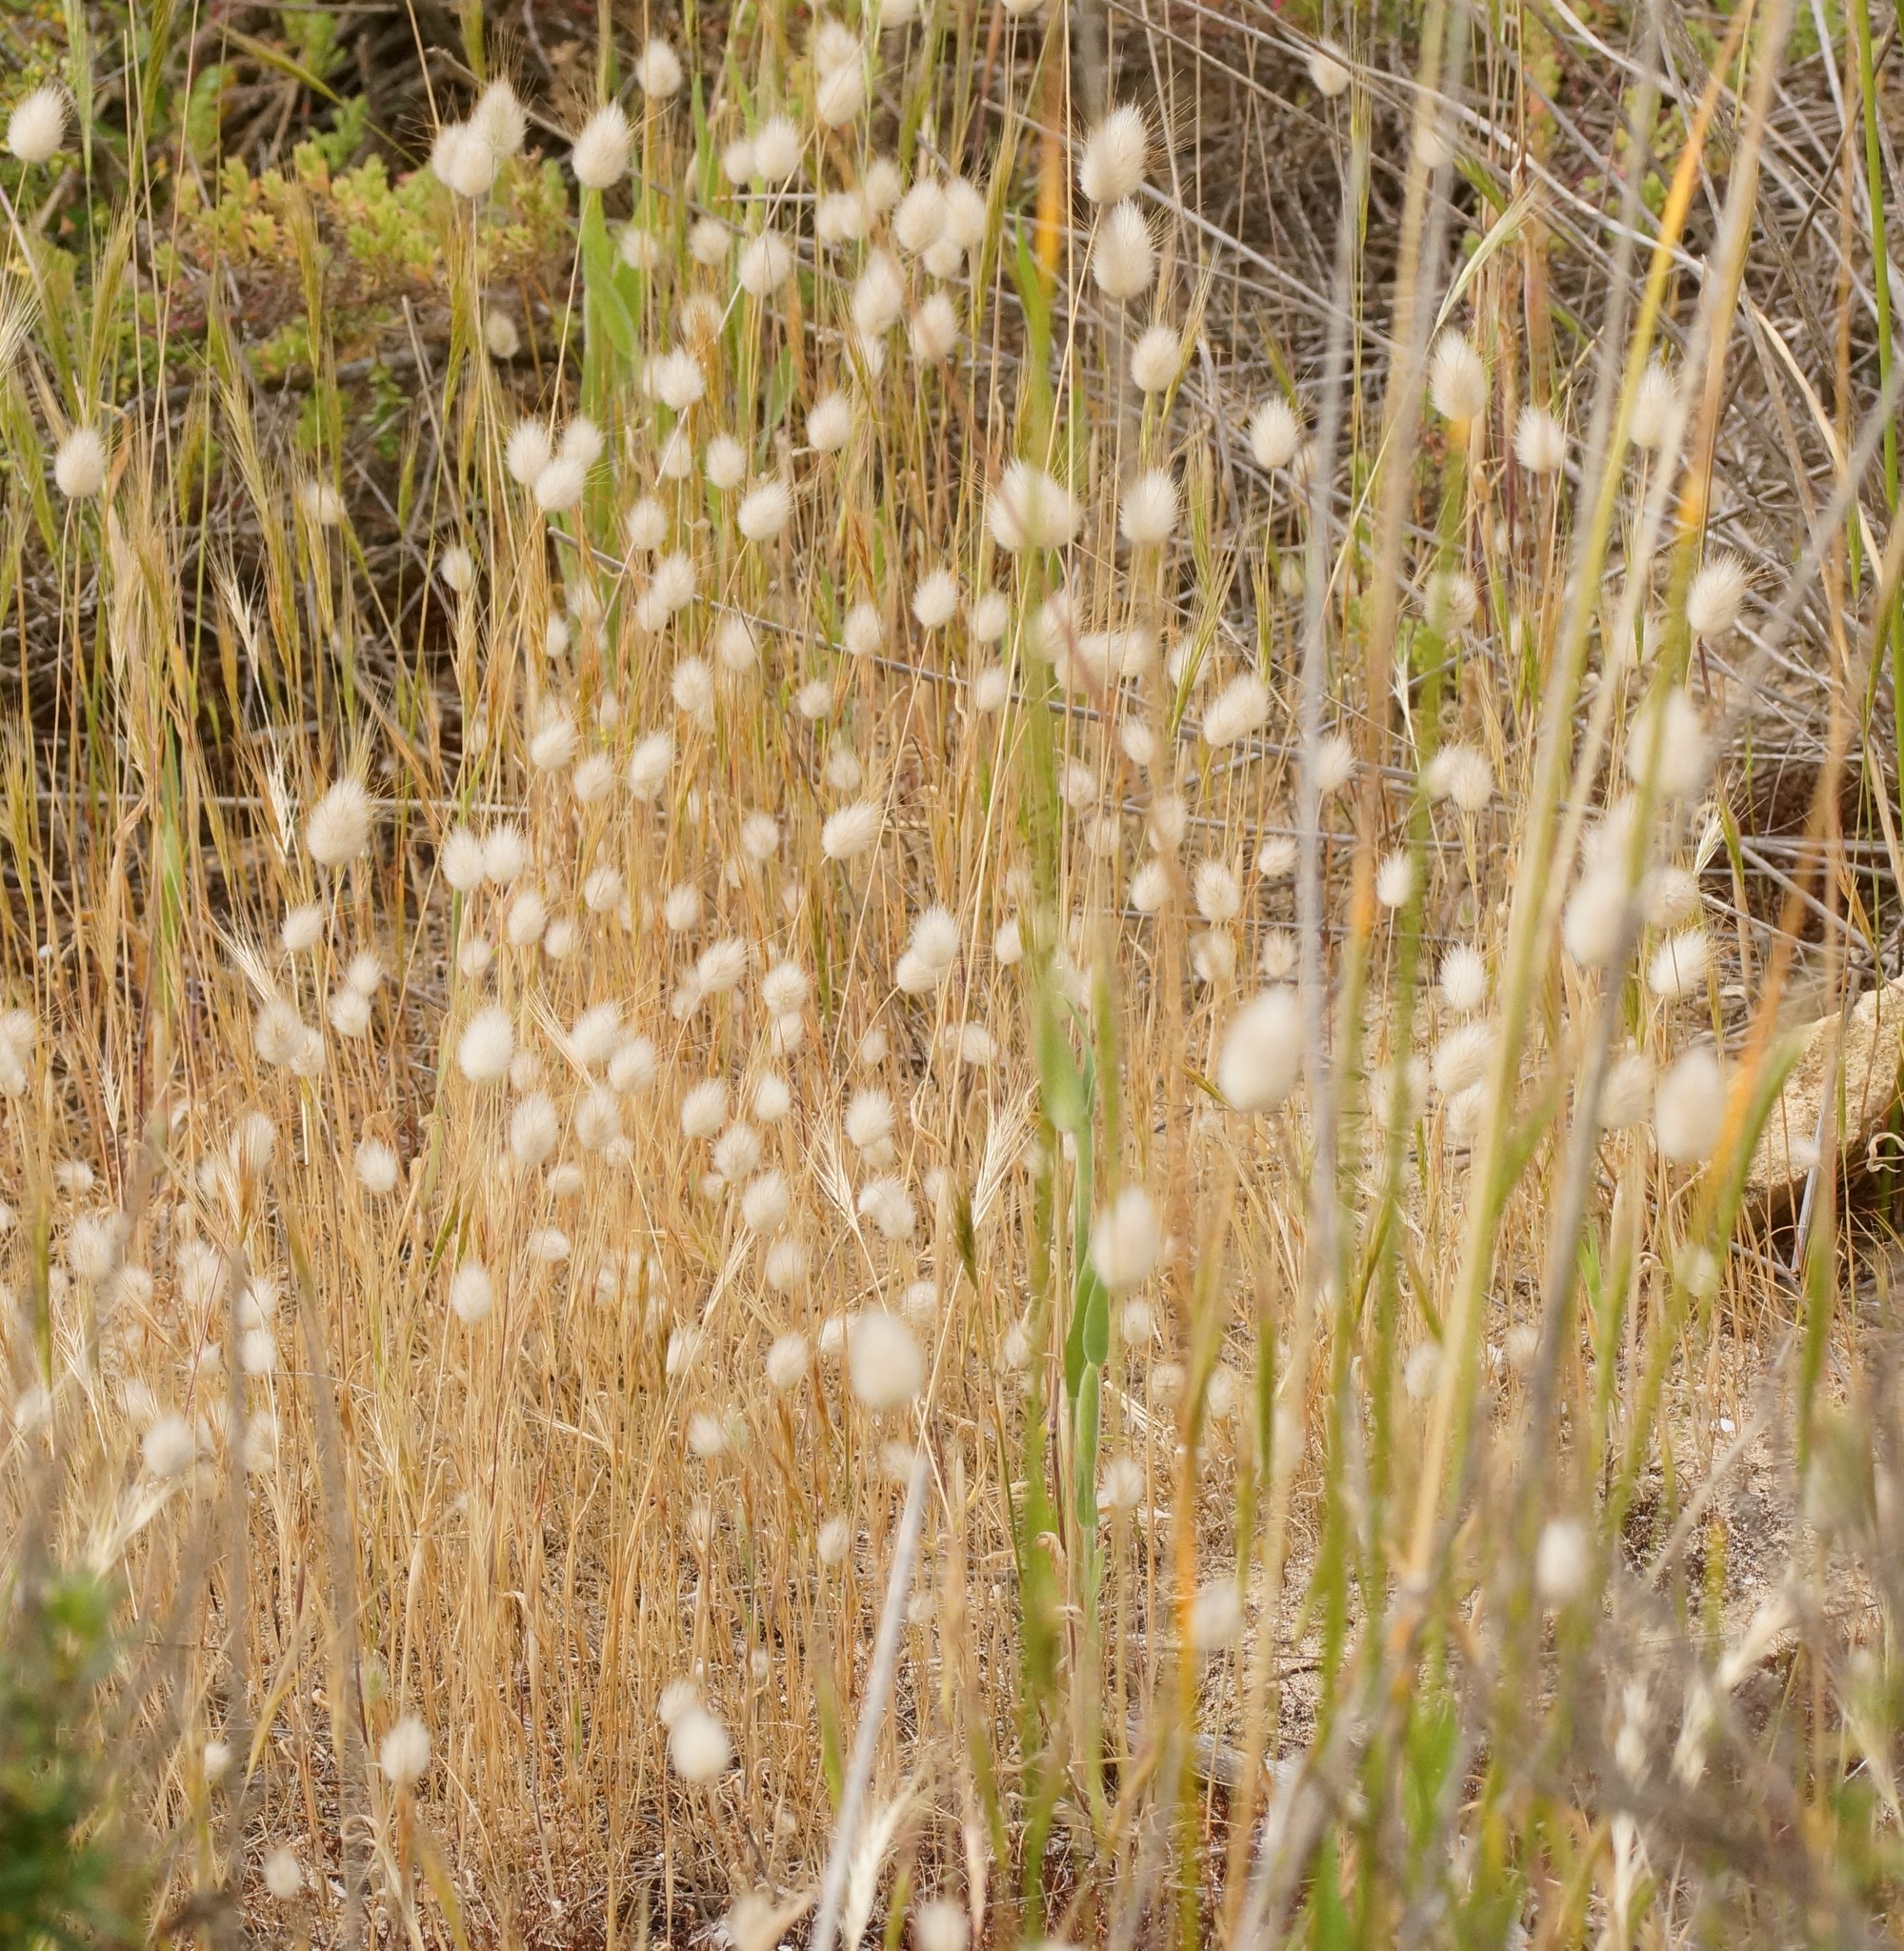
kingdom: Plantae
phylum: Tracheophyta
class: Liliopsida
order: Poales
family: Poaceae
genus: Lagurus
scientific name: Lagurus ovatus
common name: Hare's-tail
